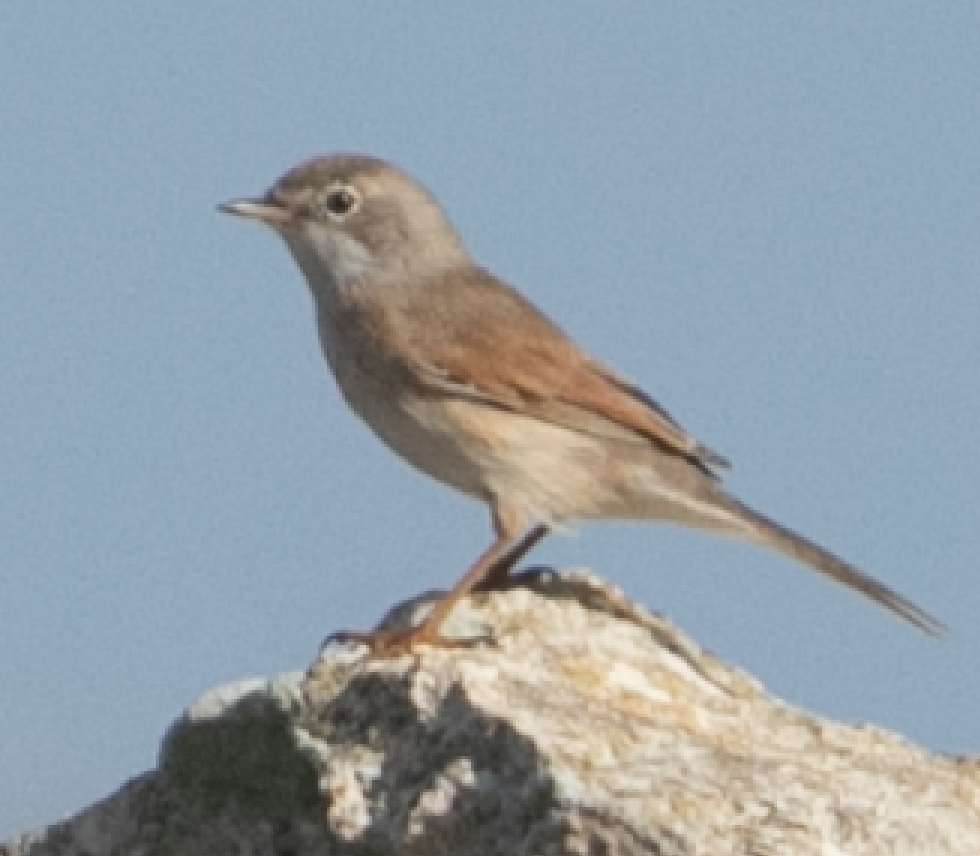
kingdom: Animalia
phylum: Chordata
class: Aves
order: Passeriformes
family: Sylviidae
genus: Sylvia
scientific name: Sylvia conspicillata
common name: Spectacled warbler
